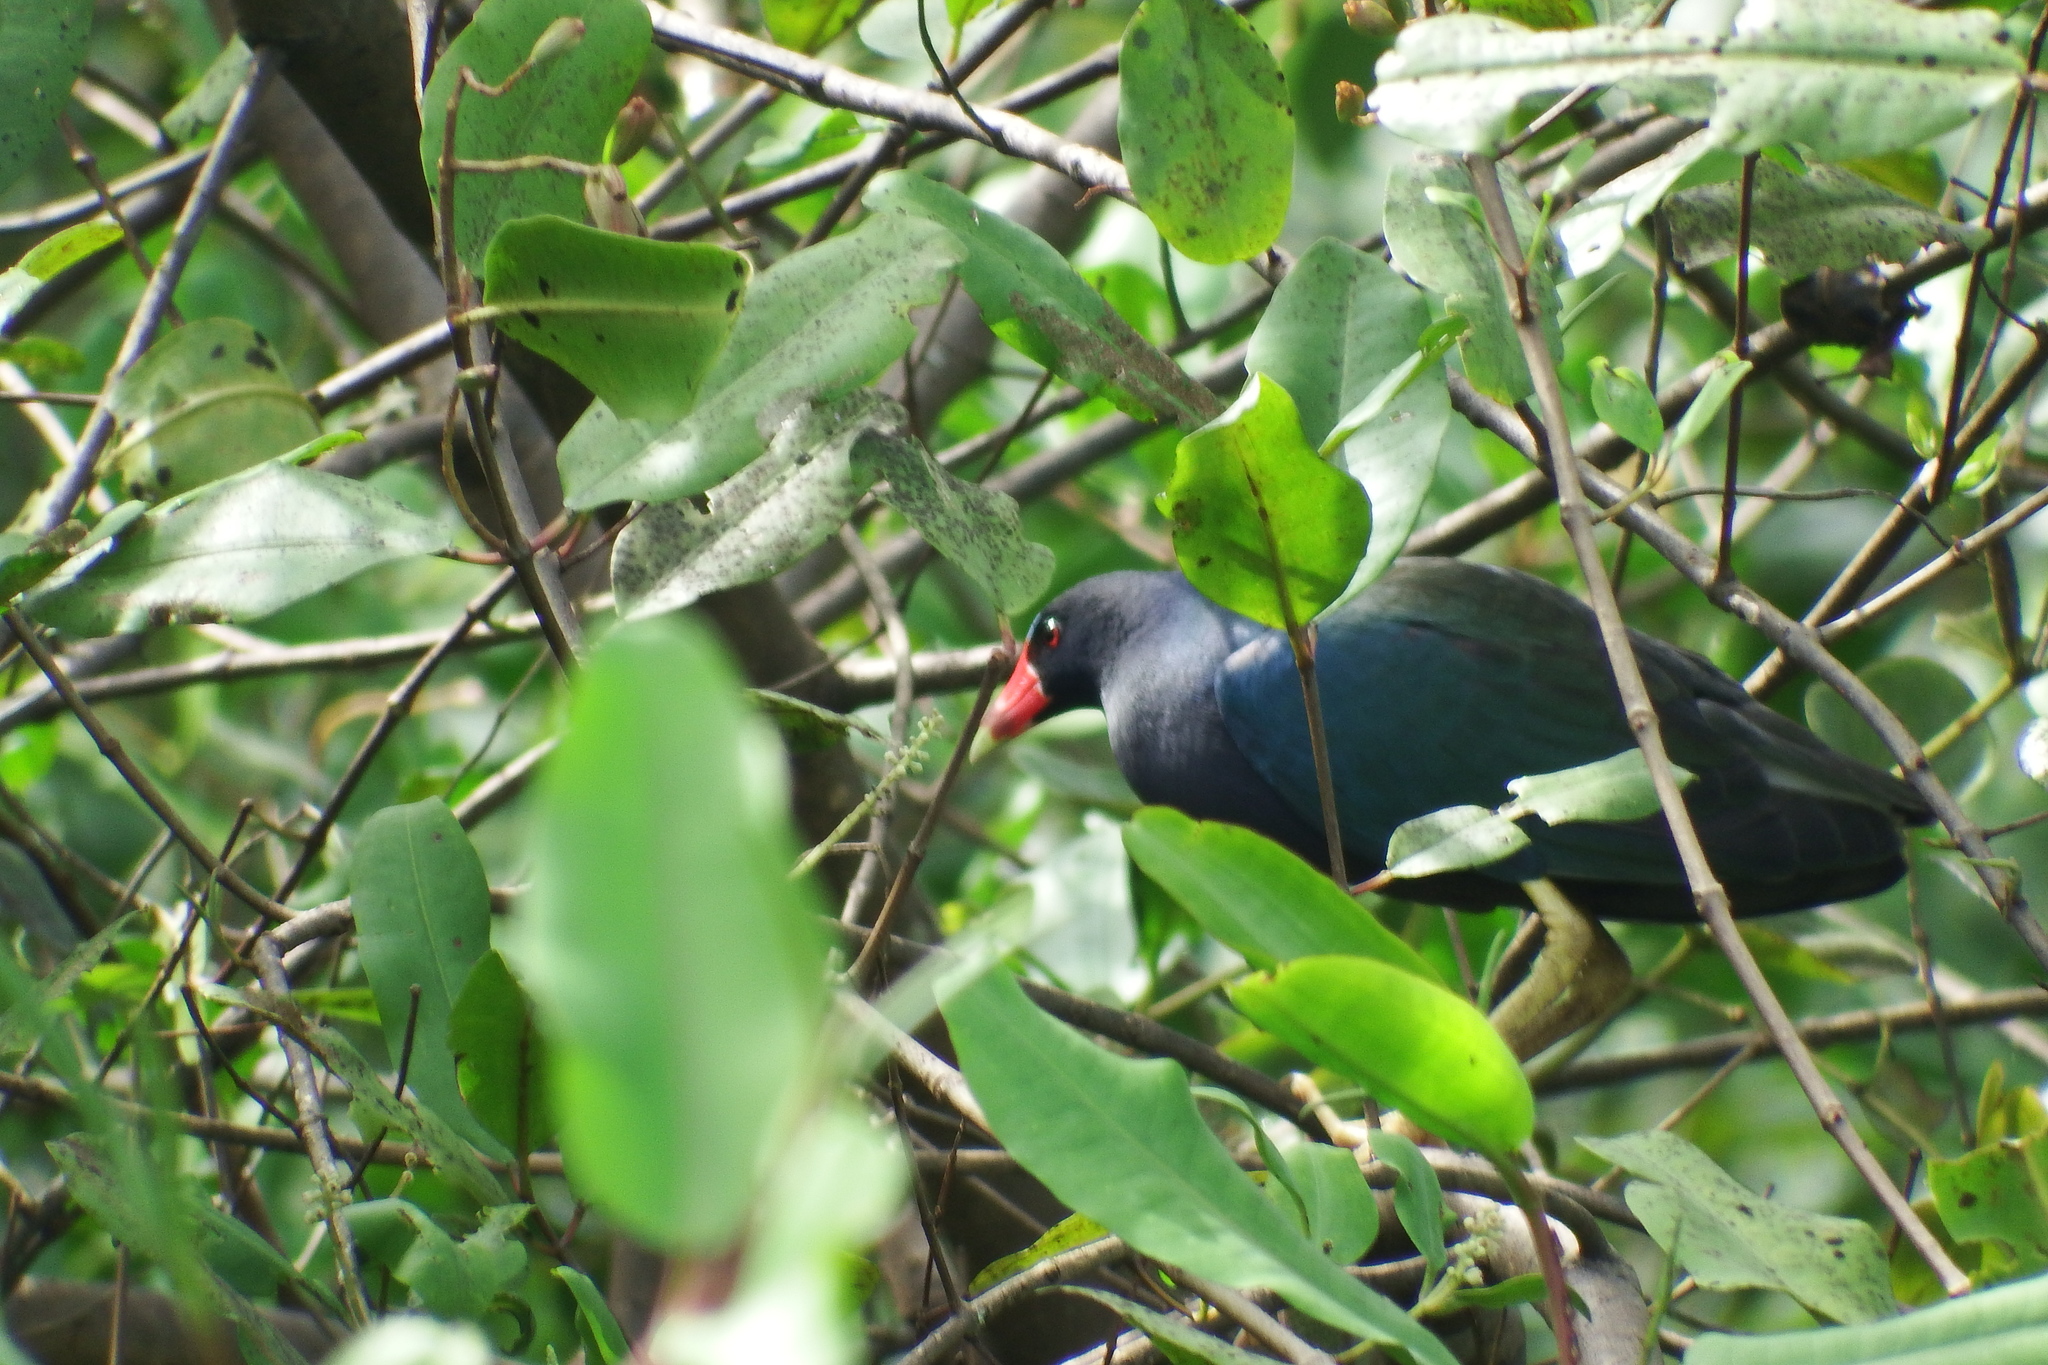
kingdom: Animalia
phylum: Chordata
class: Aves
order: Gruiformes
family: Rallidae
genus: Porphyrio
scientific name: Porphyrio martinica
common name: Purple gallinule
